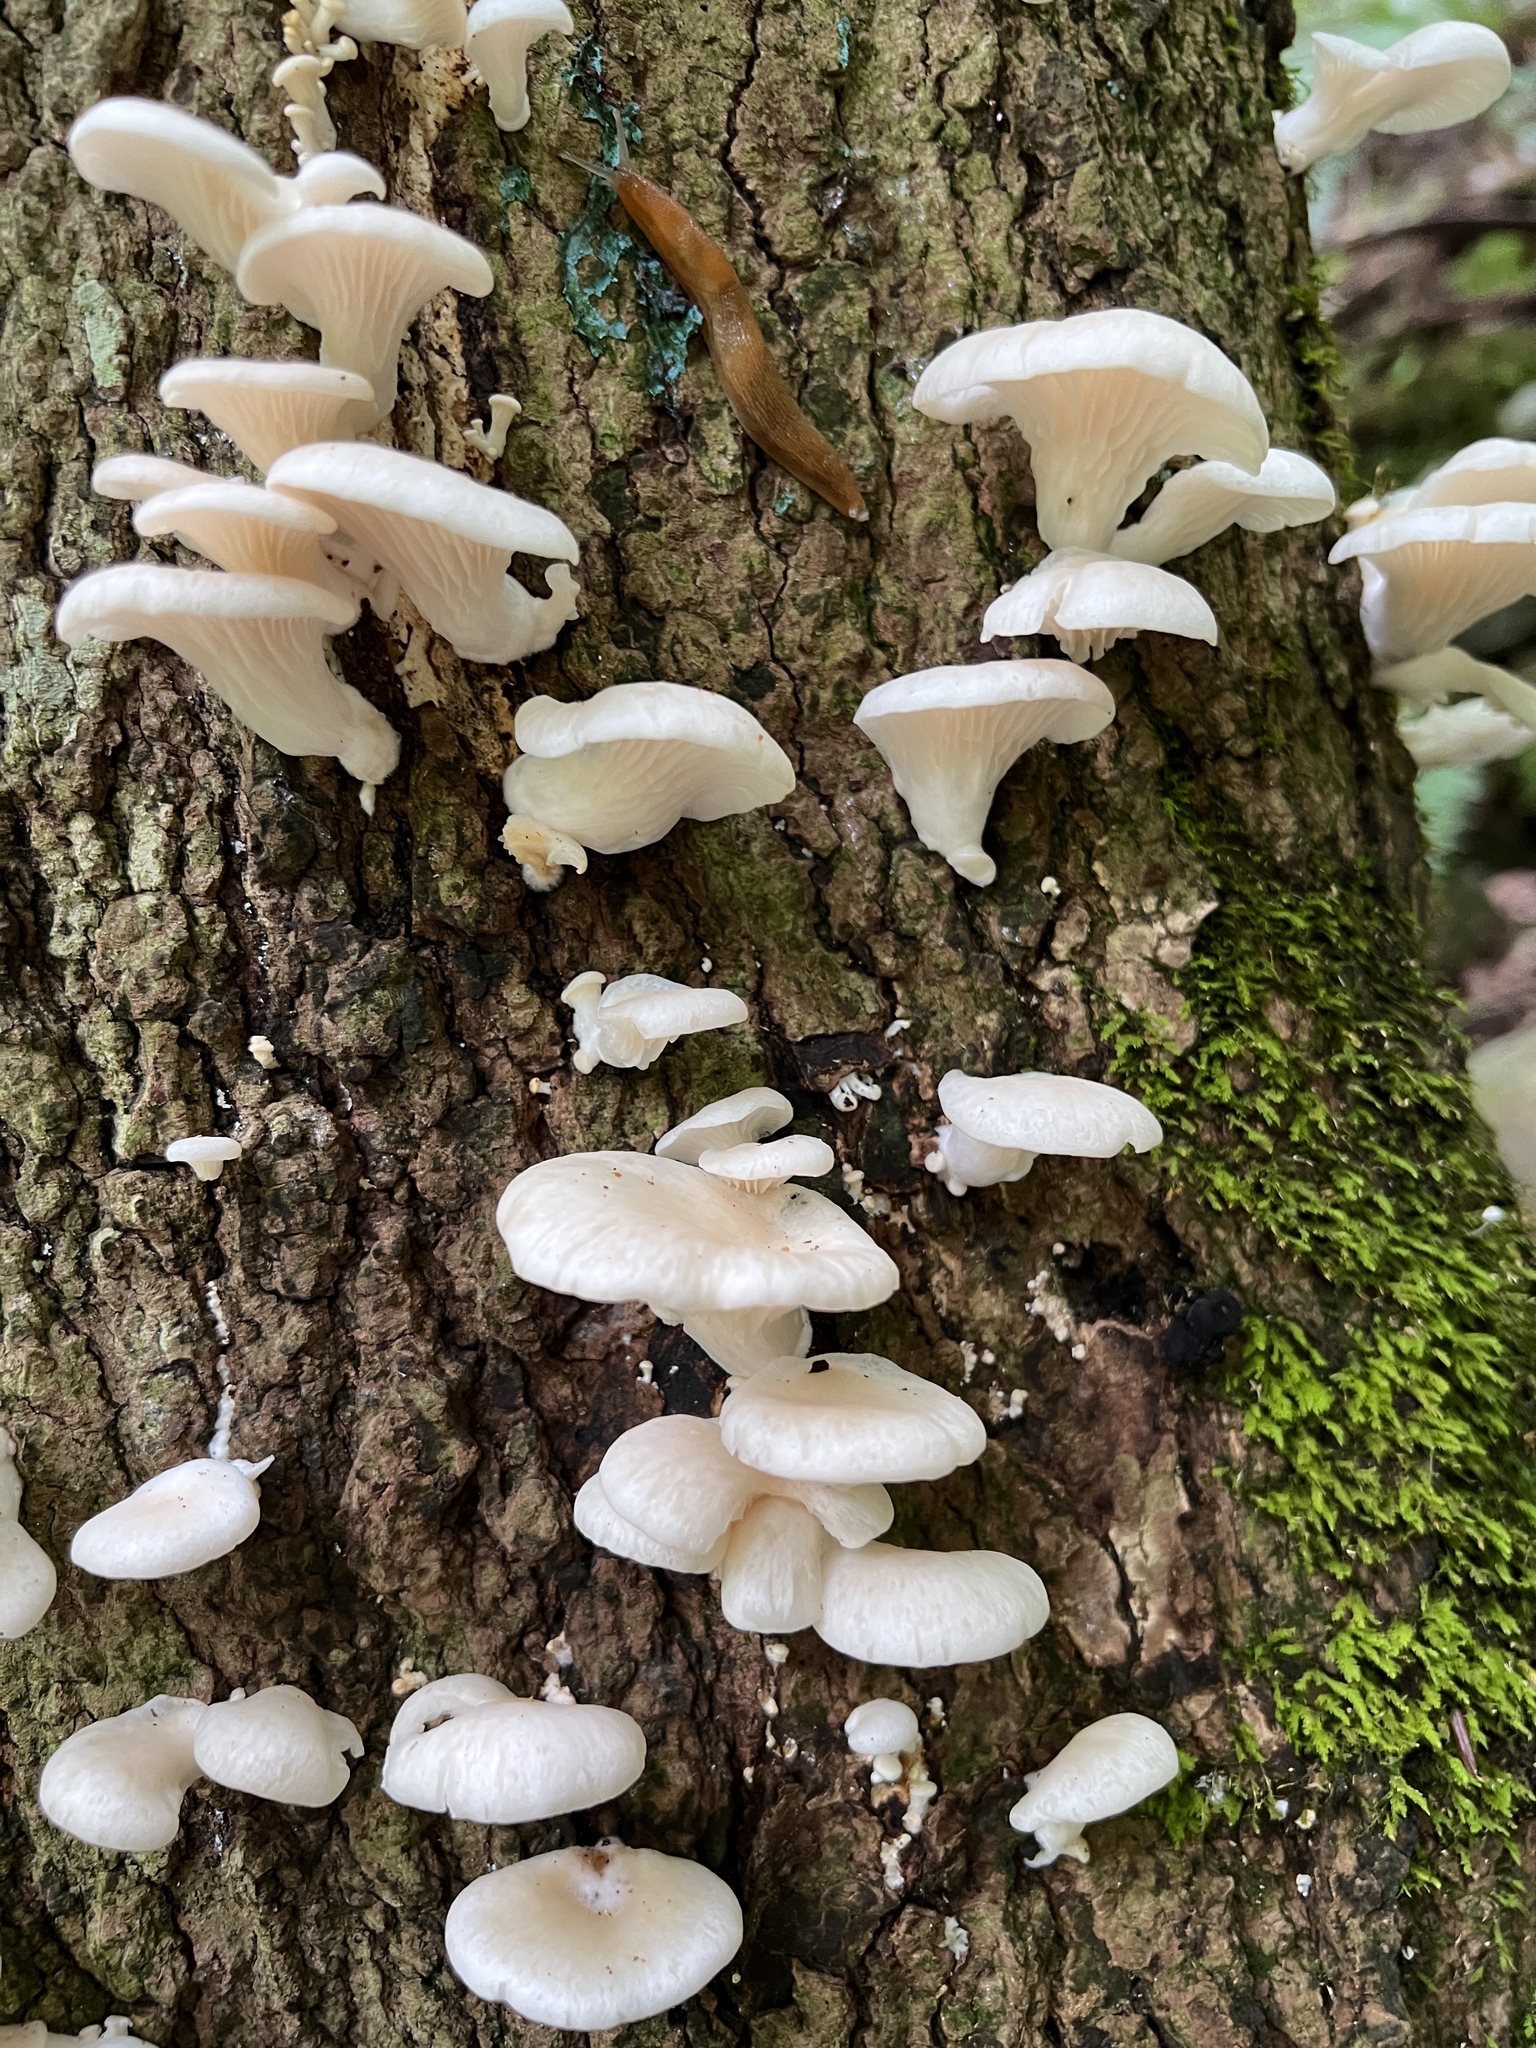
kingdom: Fungi
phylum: Basidiomycota
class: Agaricomycetes
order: Agaricales
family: Pleurotaceae
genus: Pleurotus
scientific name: Pleurotus pulmonarius
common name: Pale oyster
